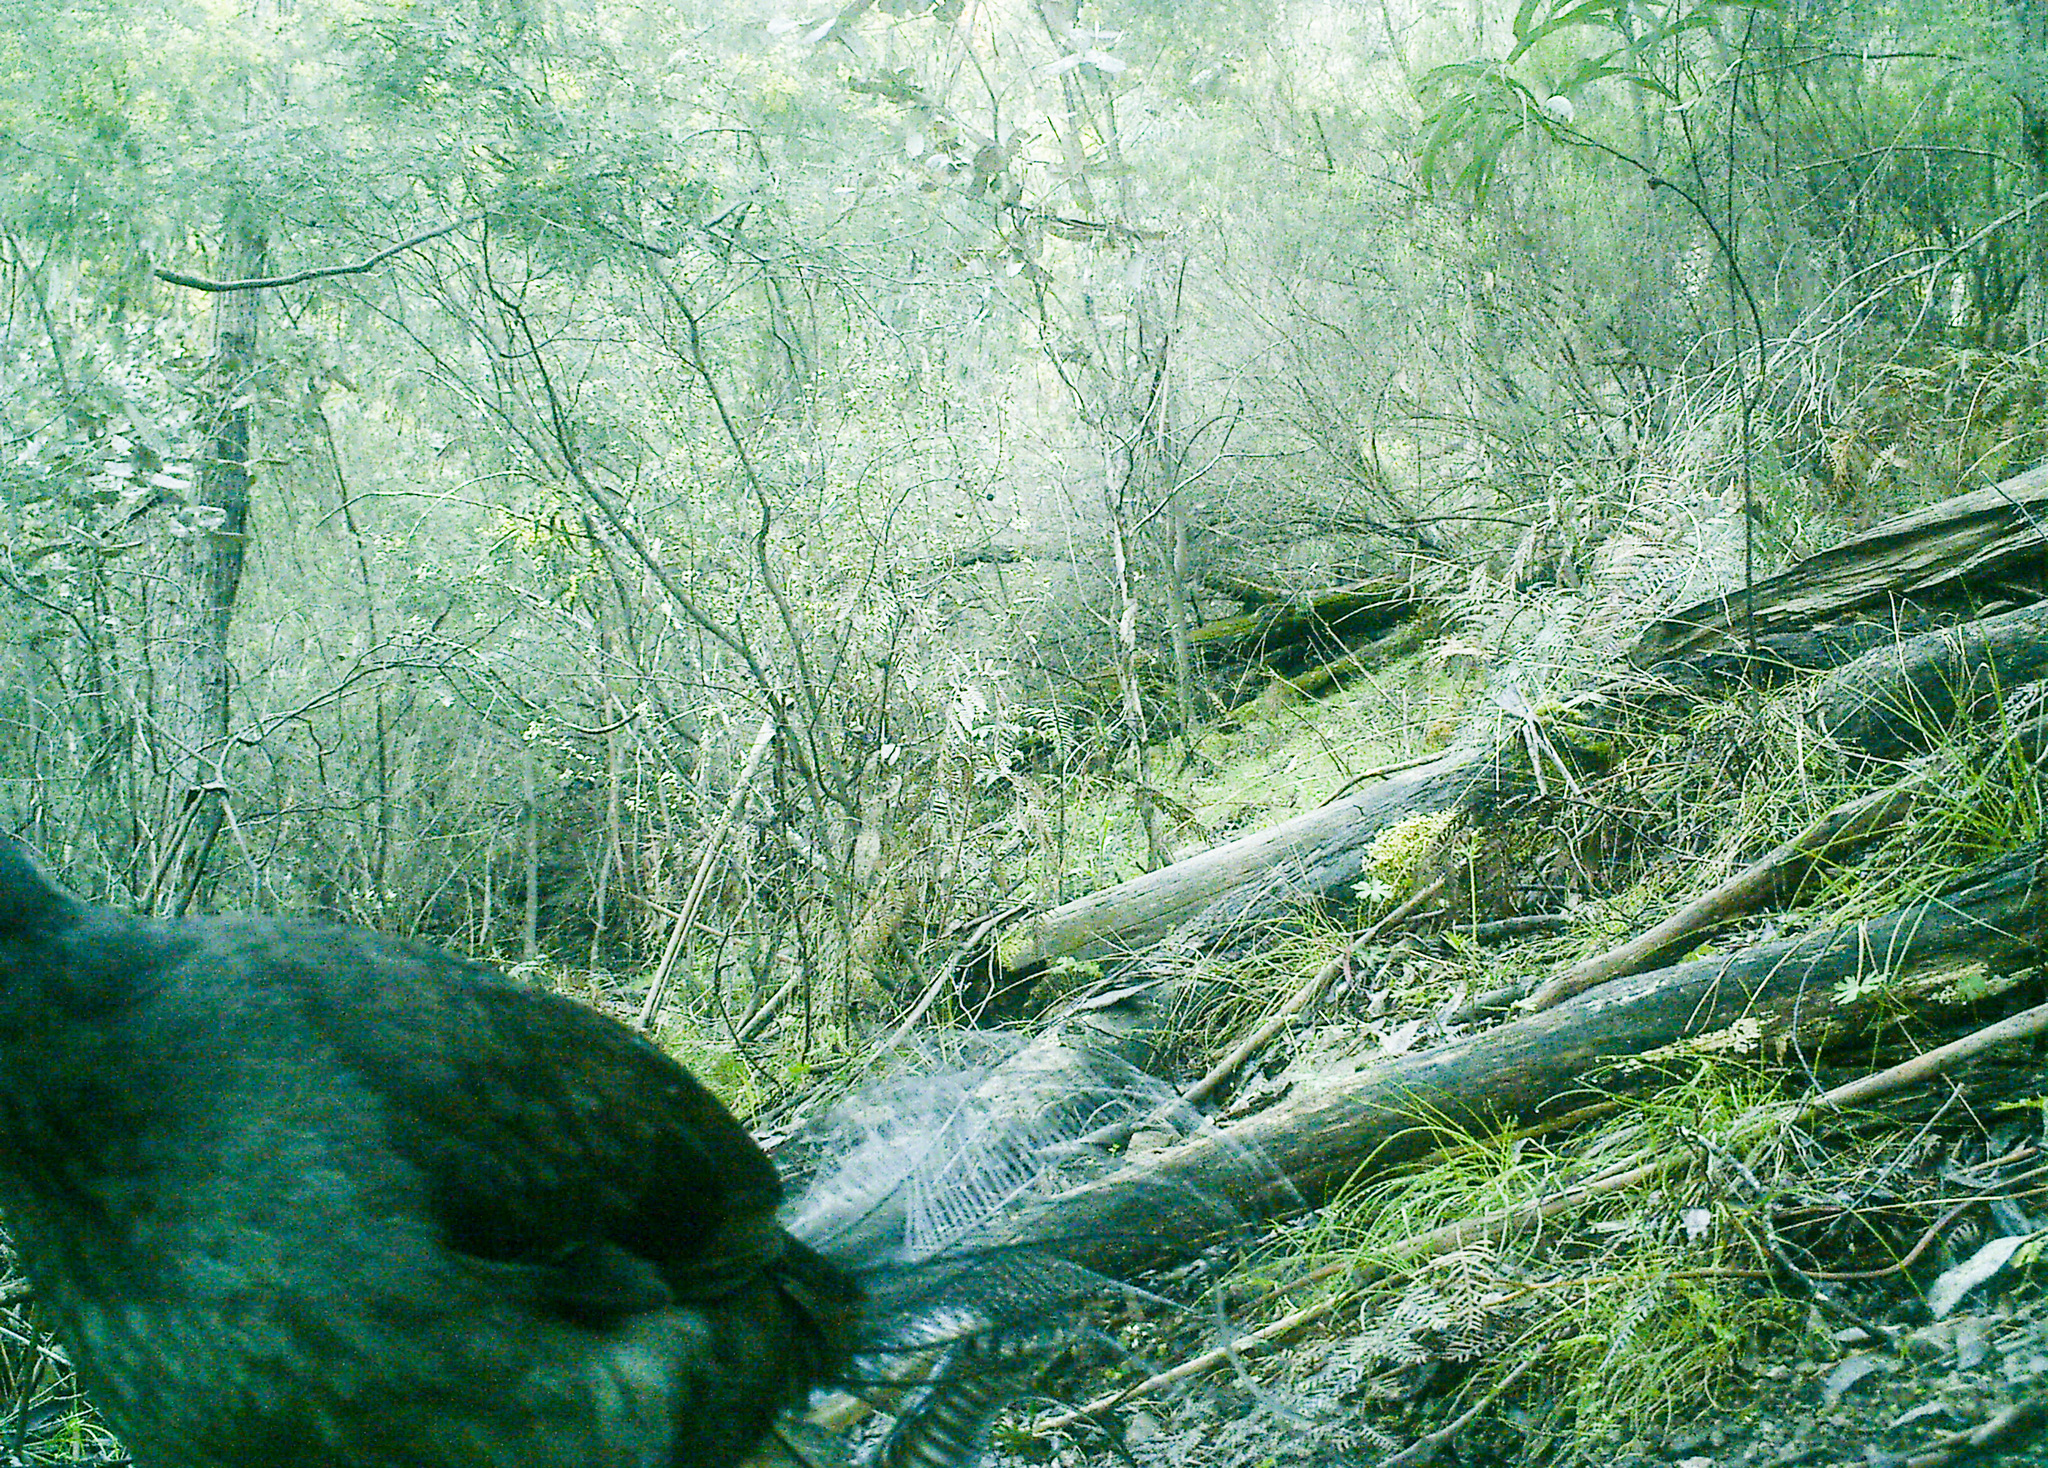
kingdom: Animalia
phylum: Chordata
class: Aves
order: Passeriformes
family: Menuridae
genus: Menura
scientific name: Menura novaehollandiae
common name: Superb lyrebird
